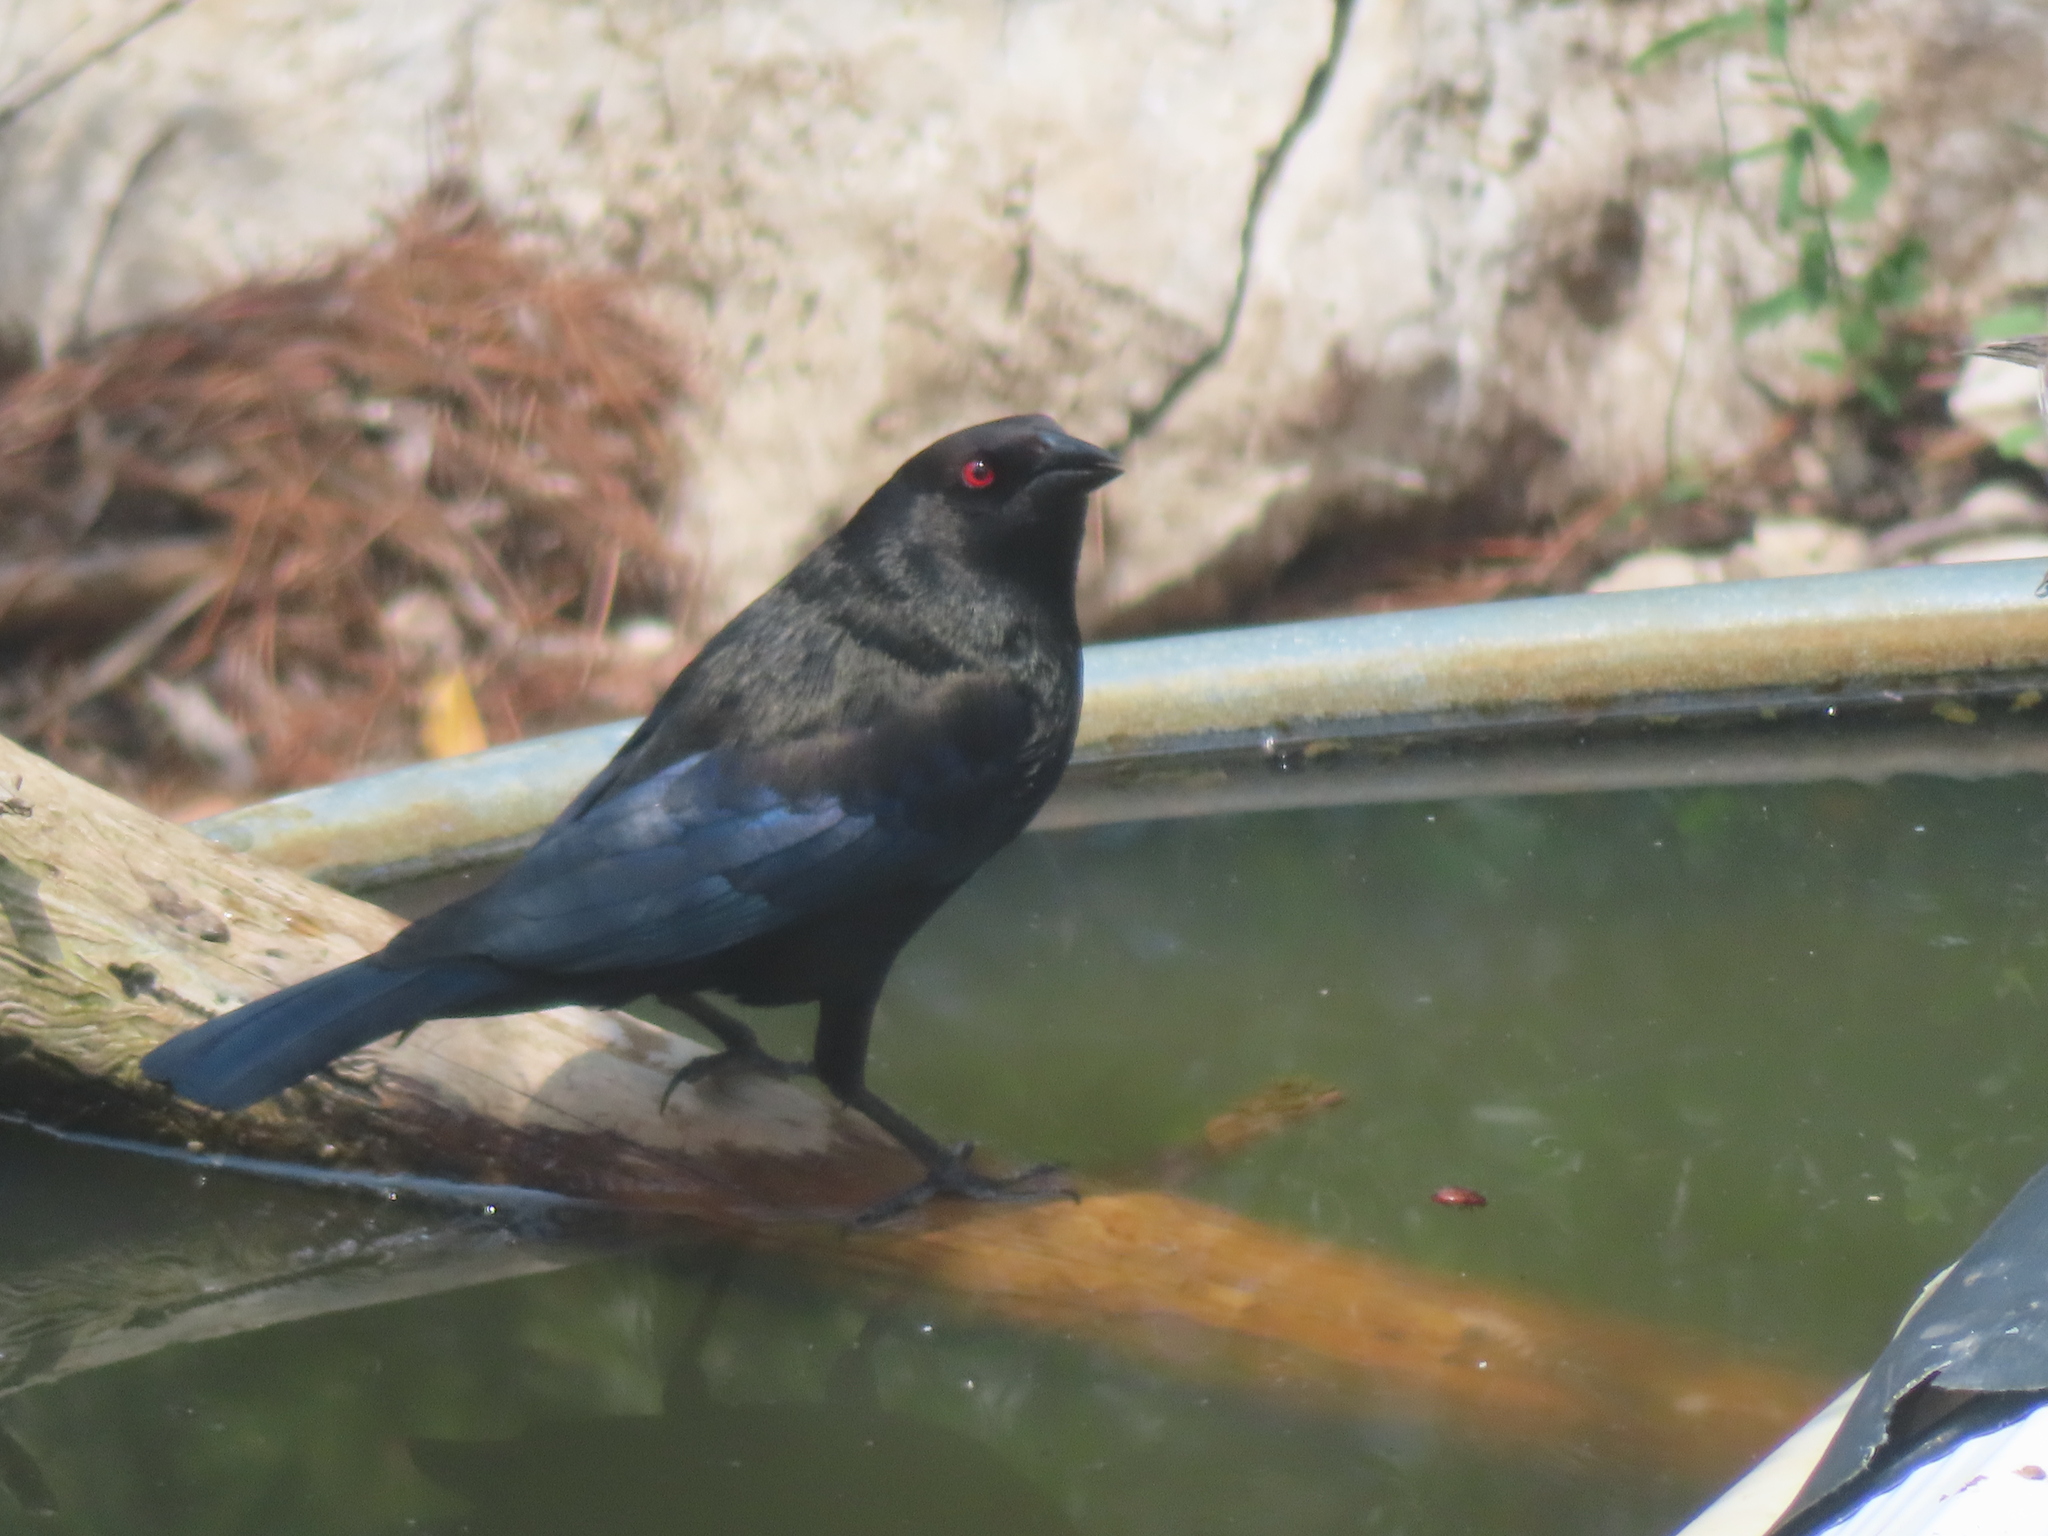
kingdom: Animalia
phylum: Chordata
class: Aves
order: Passeriformes
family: Icteridae
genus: Molothrus
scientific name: Molothrus aeneus
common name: Bronzed cowbird
